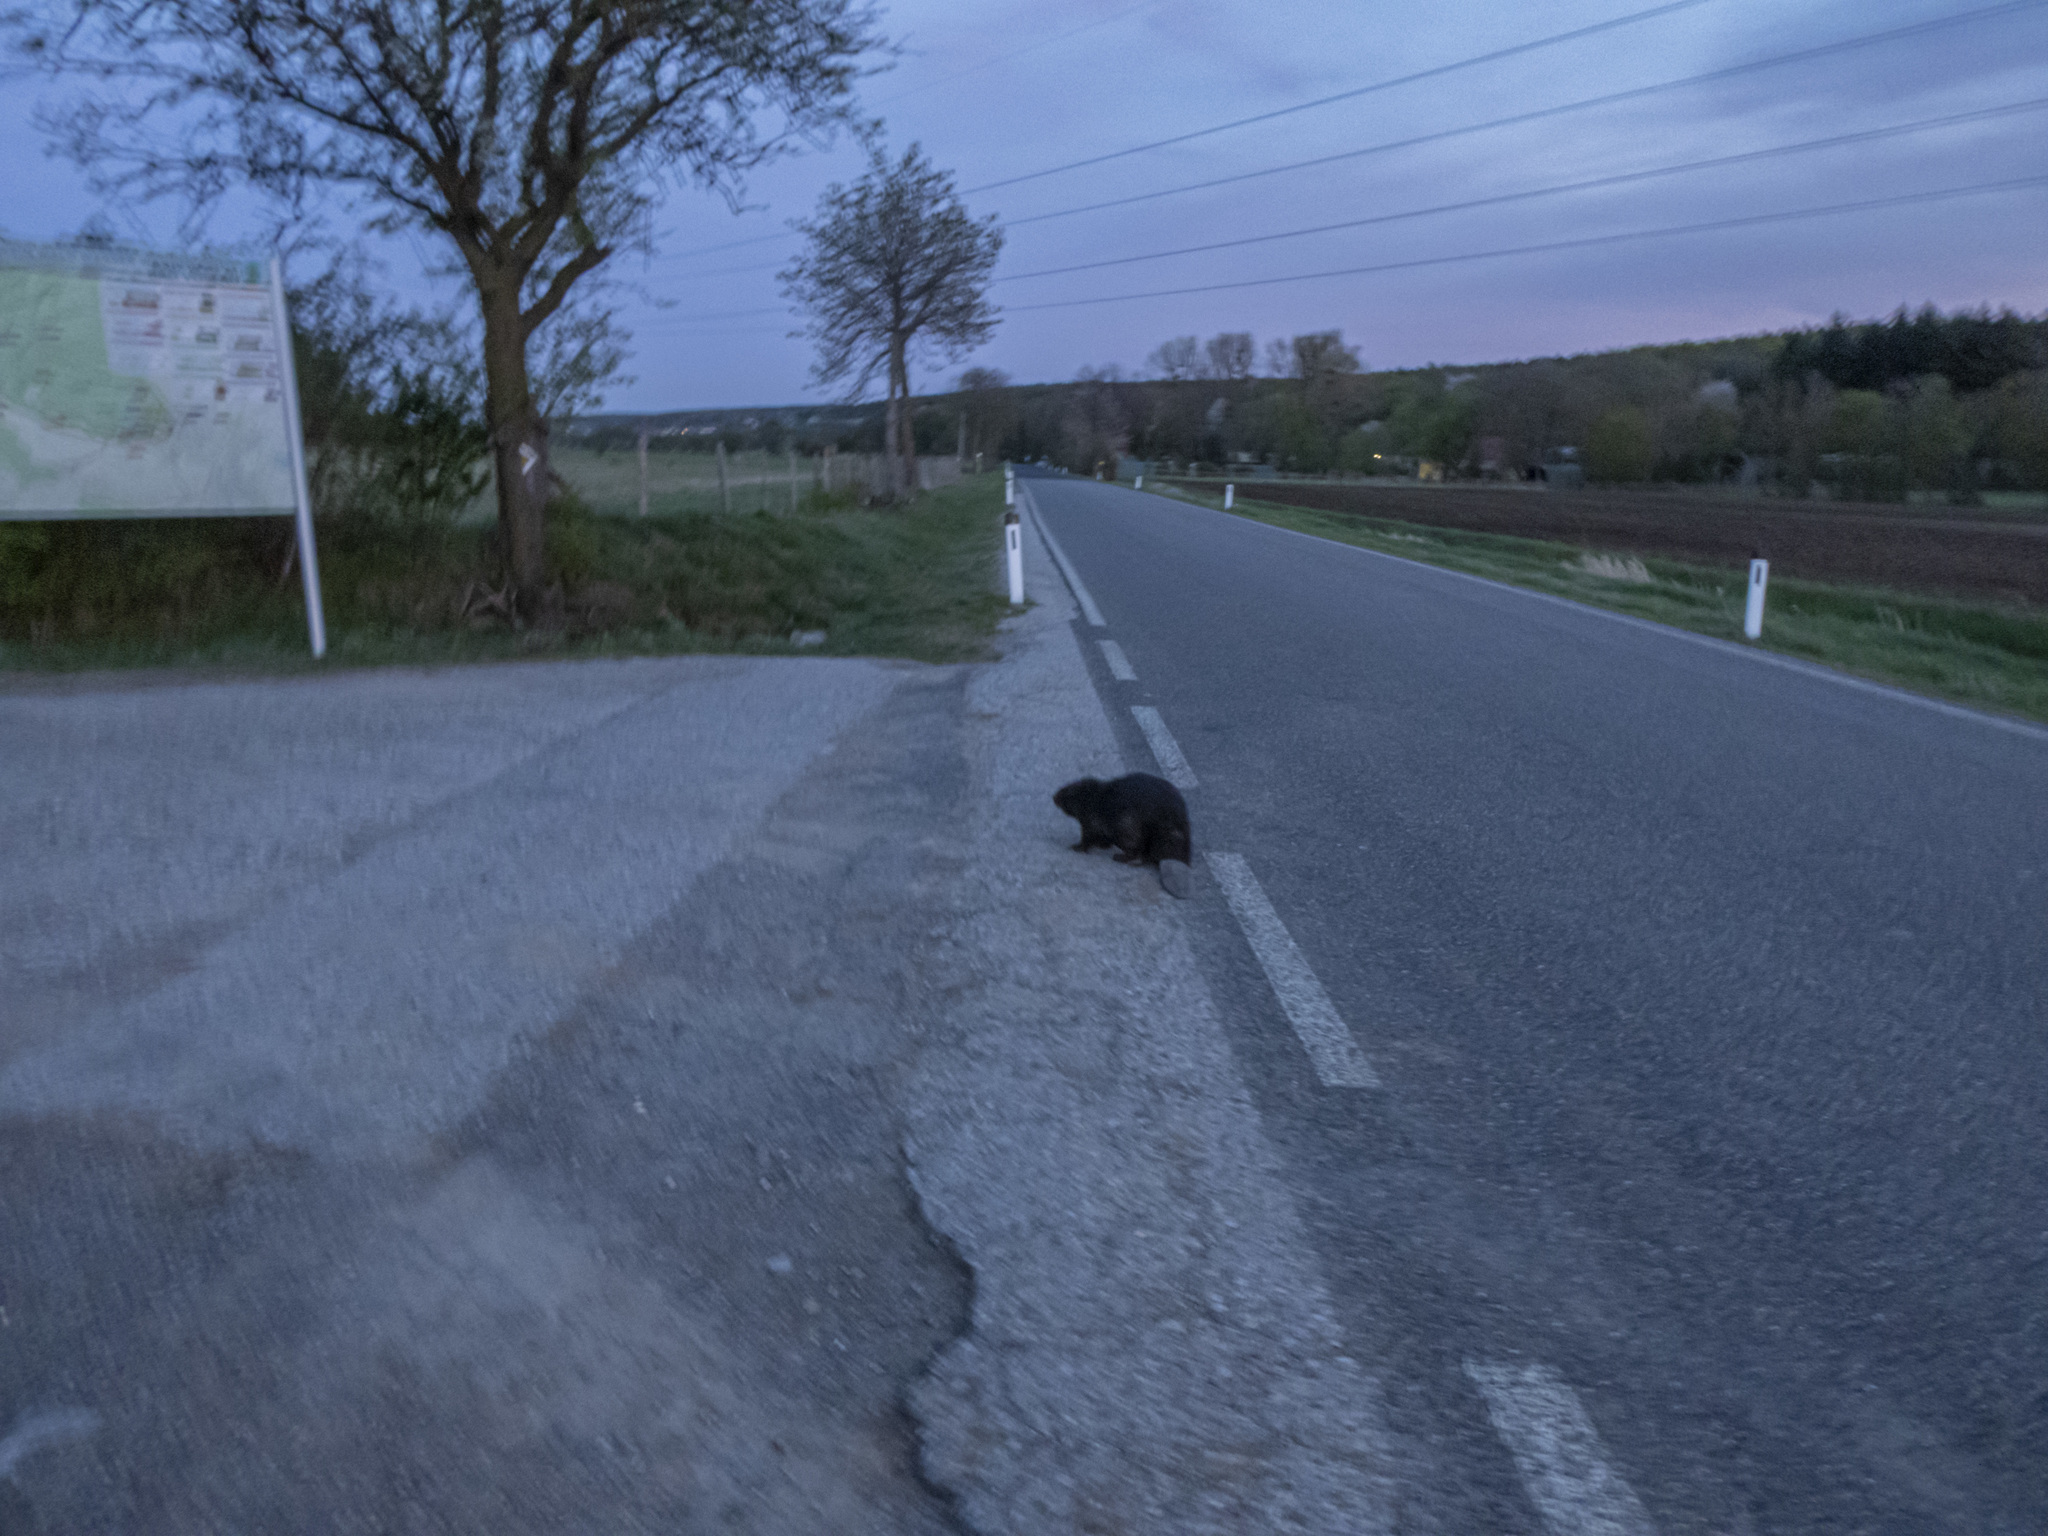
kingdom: Animalia
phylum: Chordata
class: Mammalia
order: Rodentia
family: Castoridae
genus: Castor
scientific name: Castor fiber
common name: Eurasian beaver
